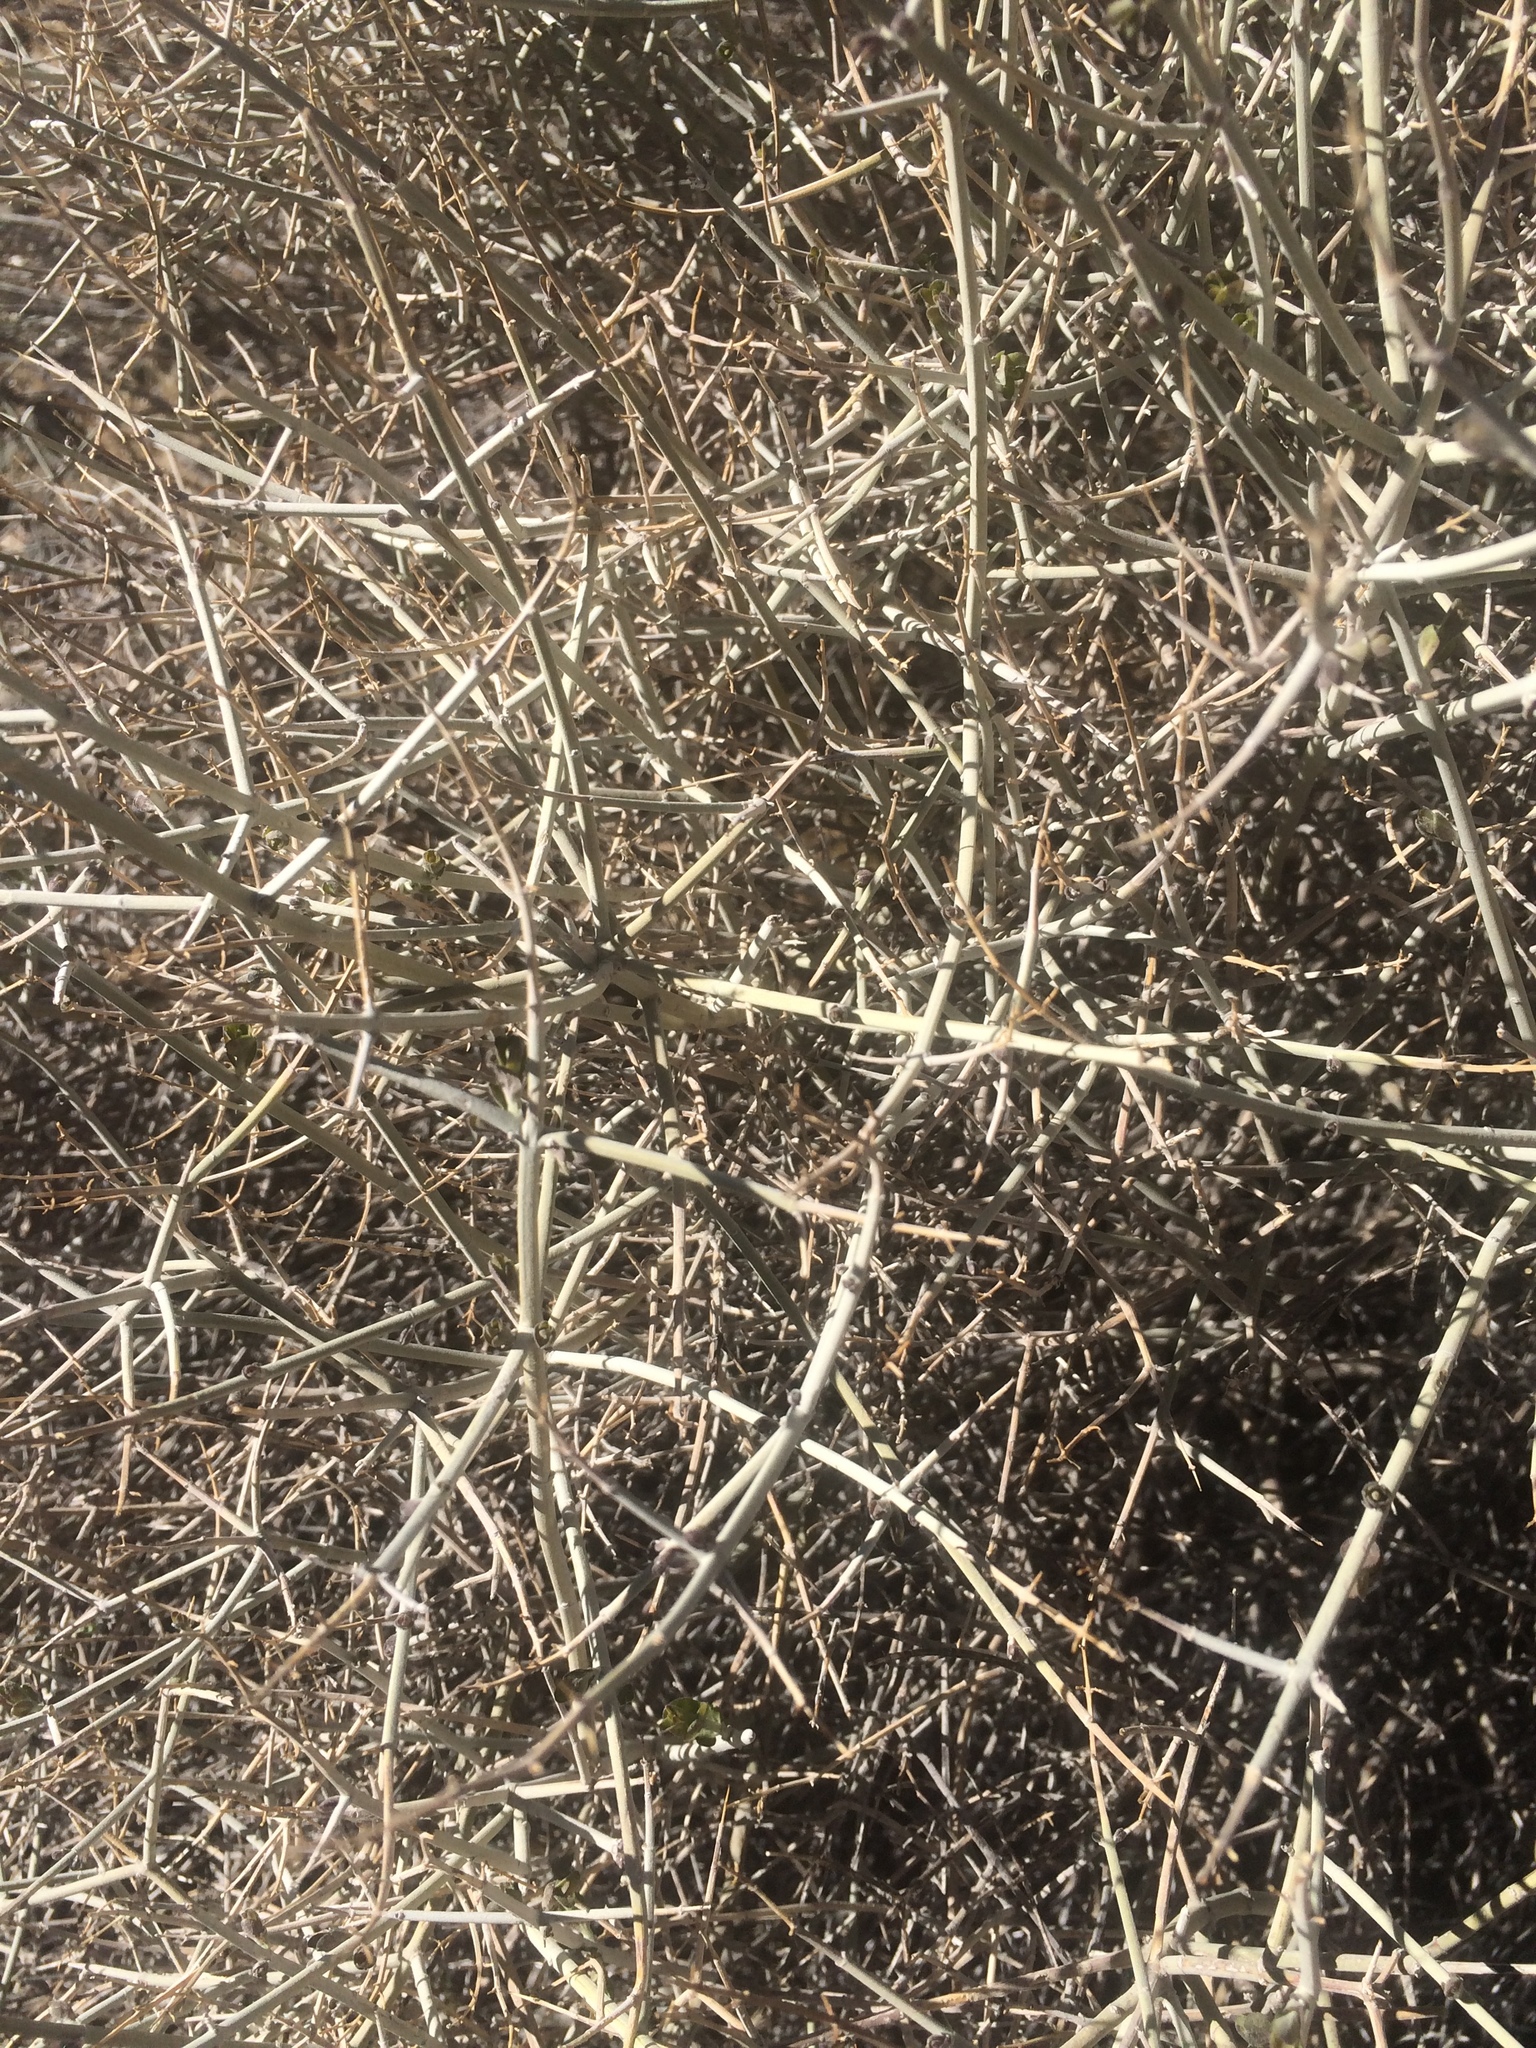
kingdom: Plantae
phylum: Tracheophyta
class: Magnoliopsida
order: Lamiales
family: Lamiaceae
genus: Scutellaria
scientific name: Scutellaria mexicana
